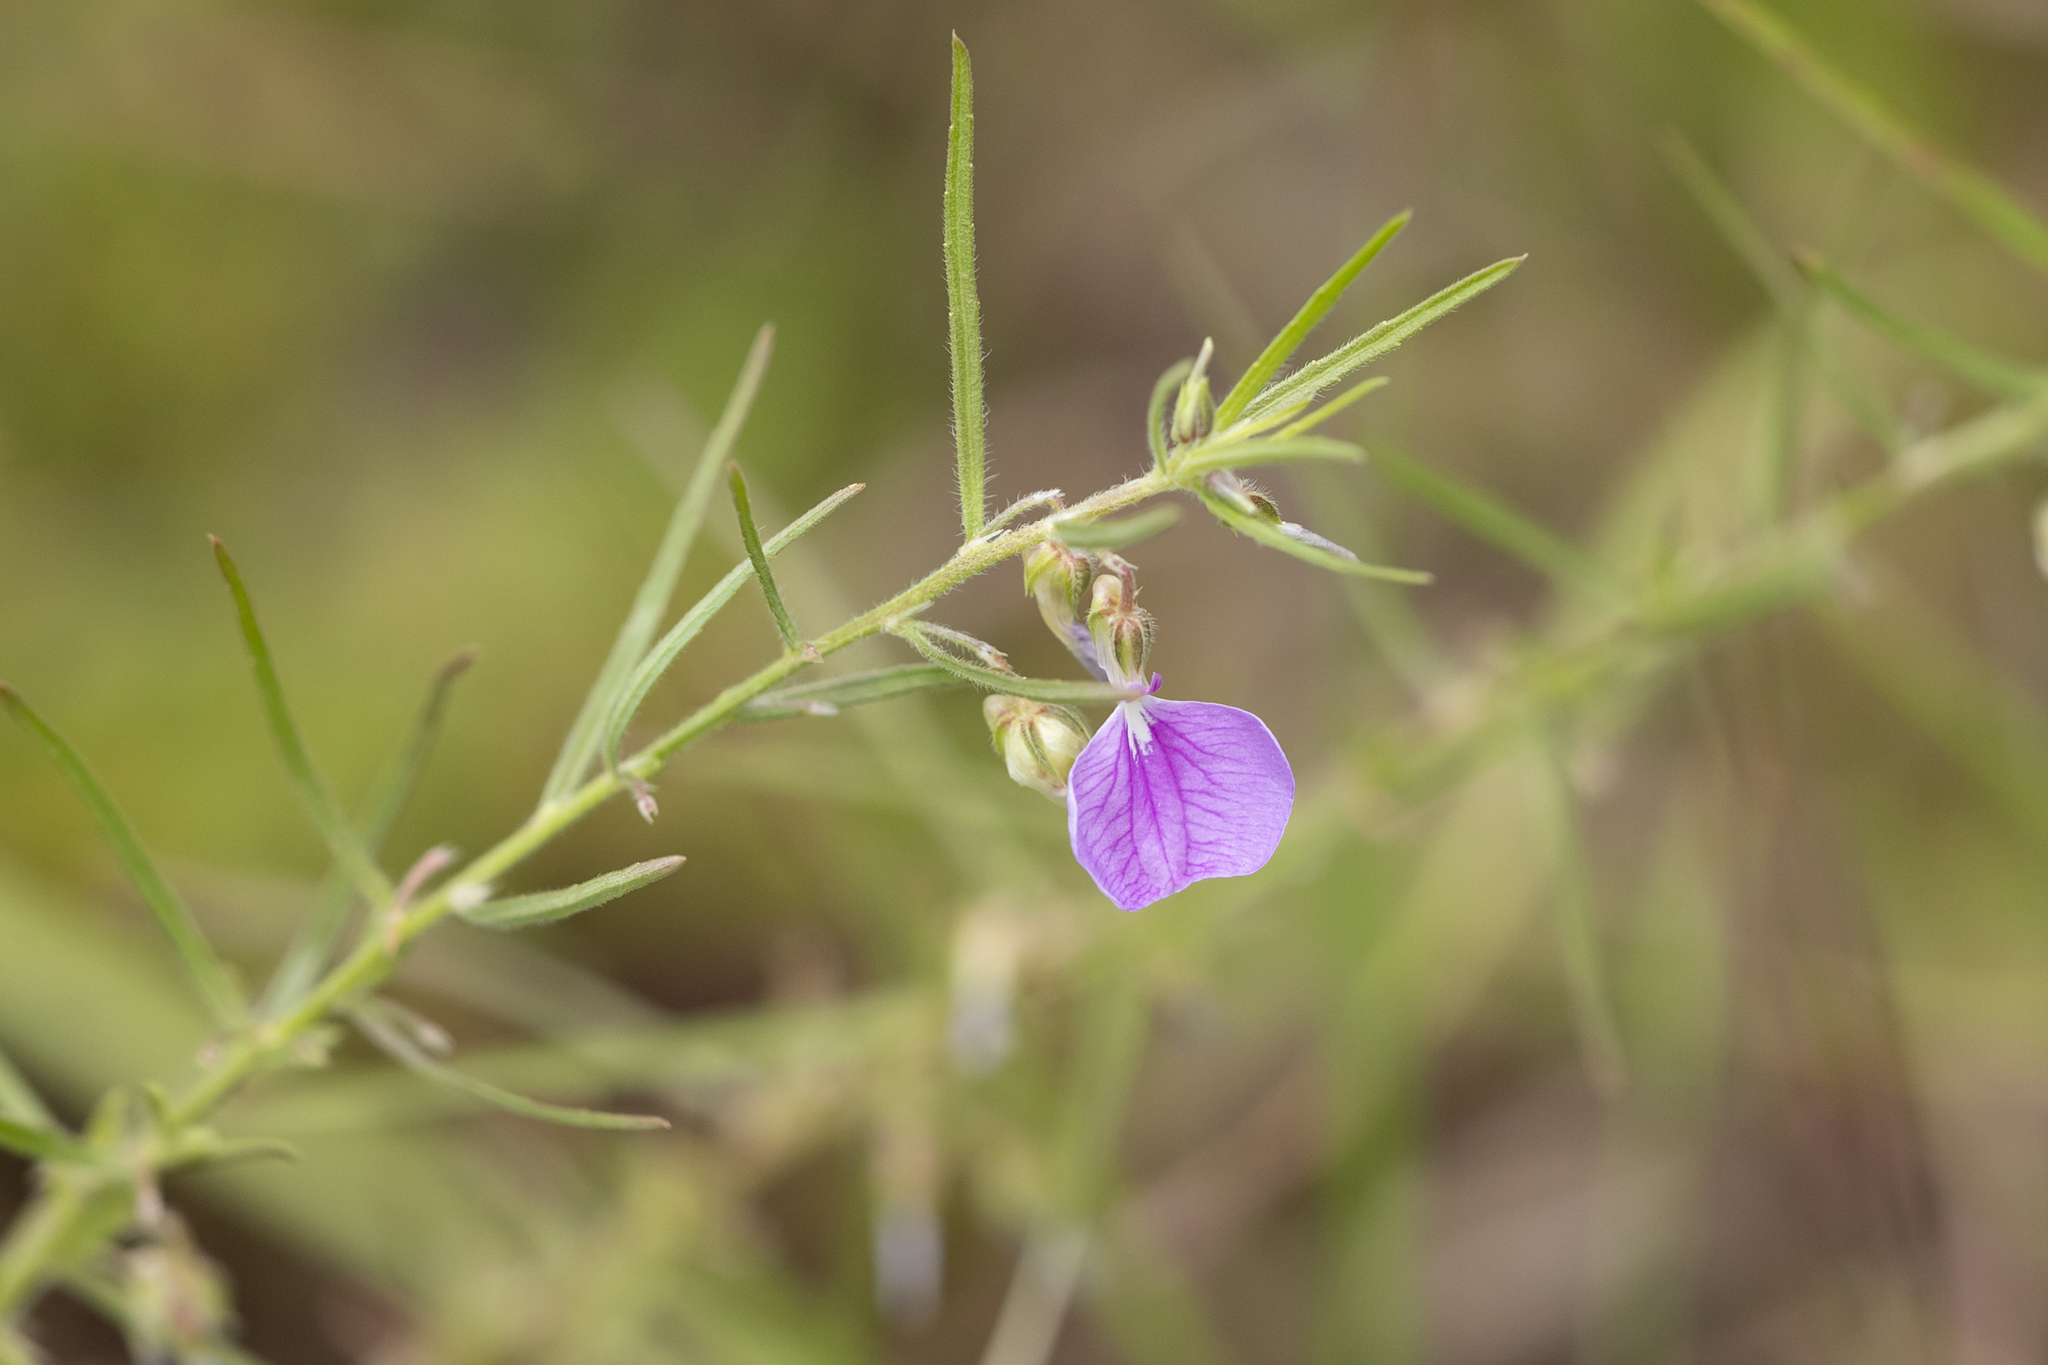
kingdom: Plantae
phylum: Tracheophyta
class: Magnoliopsida
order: Malpighiales
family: Violaceae
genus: Pigea
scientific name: Pigea enneasperma
